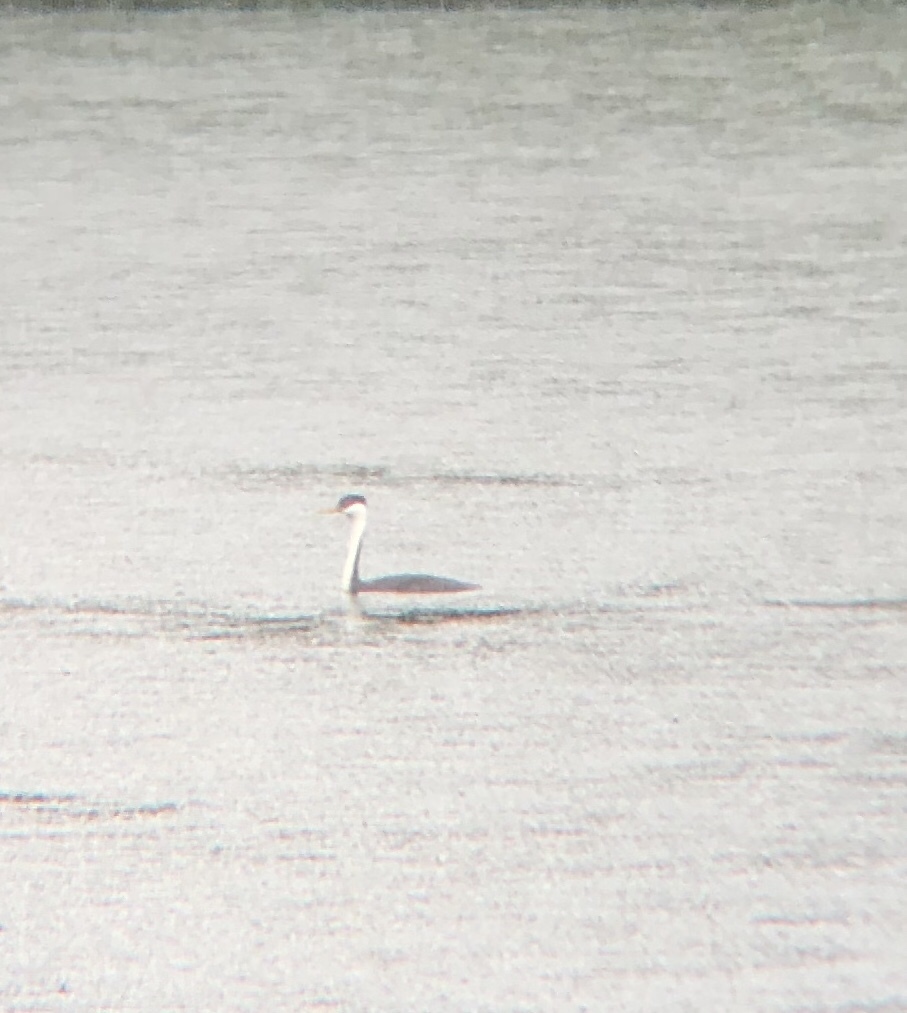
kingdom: Animalia
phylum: Chordata
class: Aves
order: Podicipediformes
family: Podicipedidae
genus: Aechmophorus
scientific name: Aechmophorus occidentalis
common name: Western grebe
